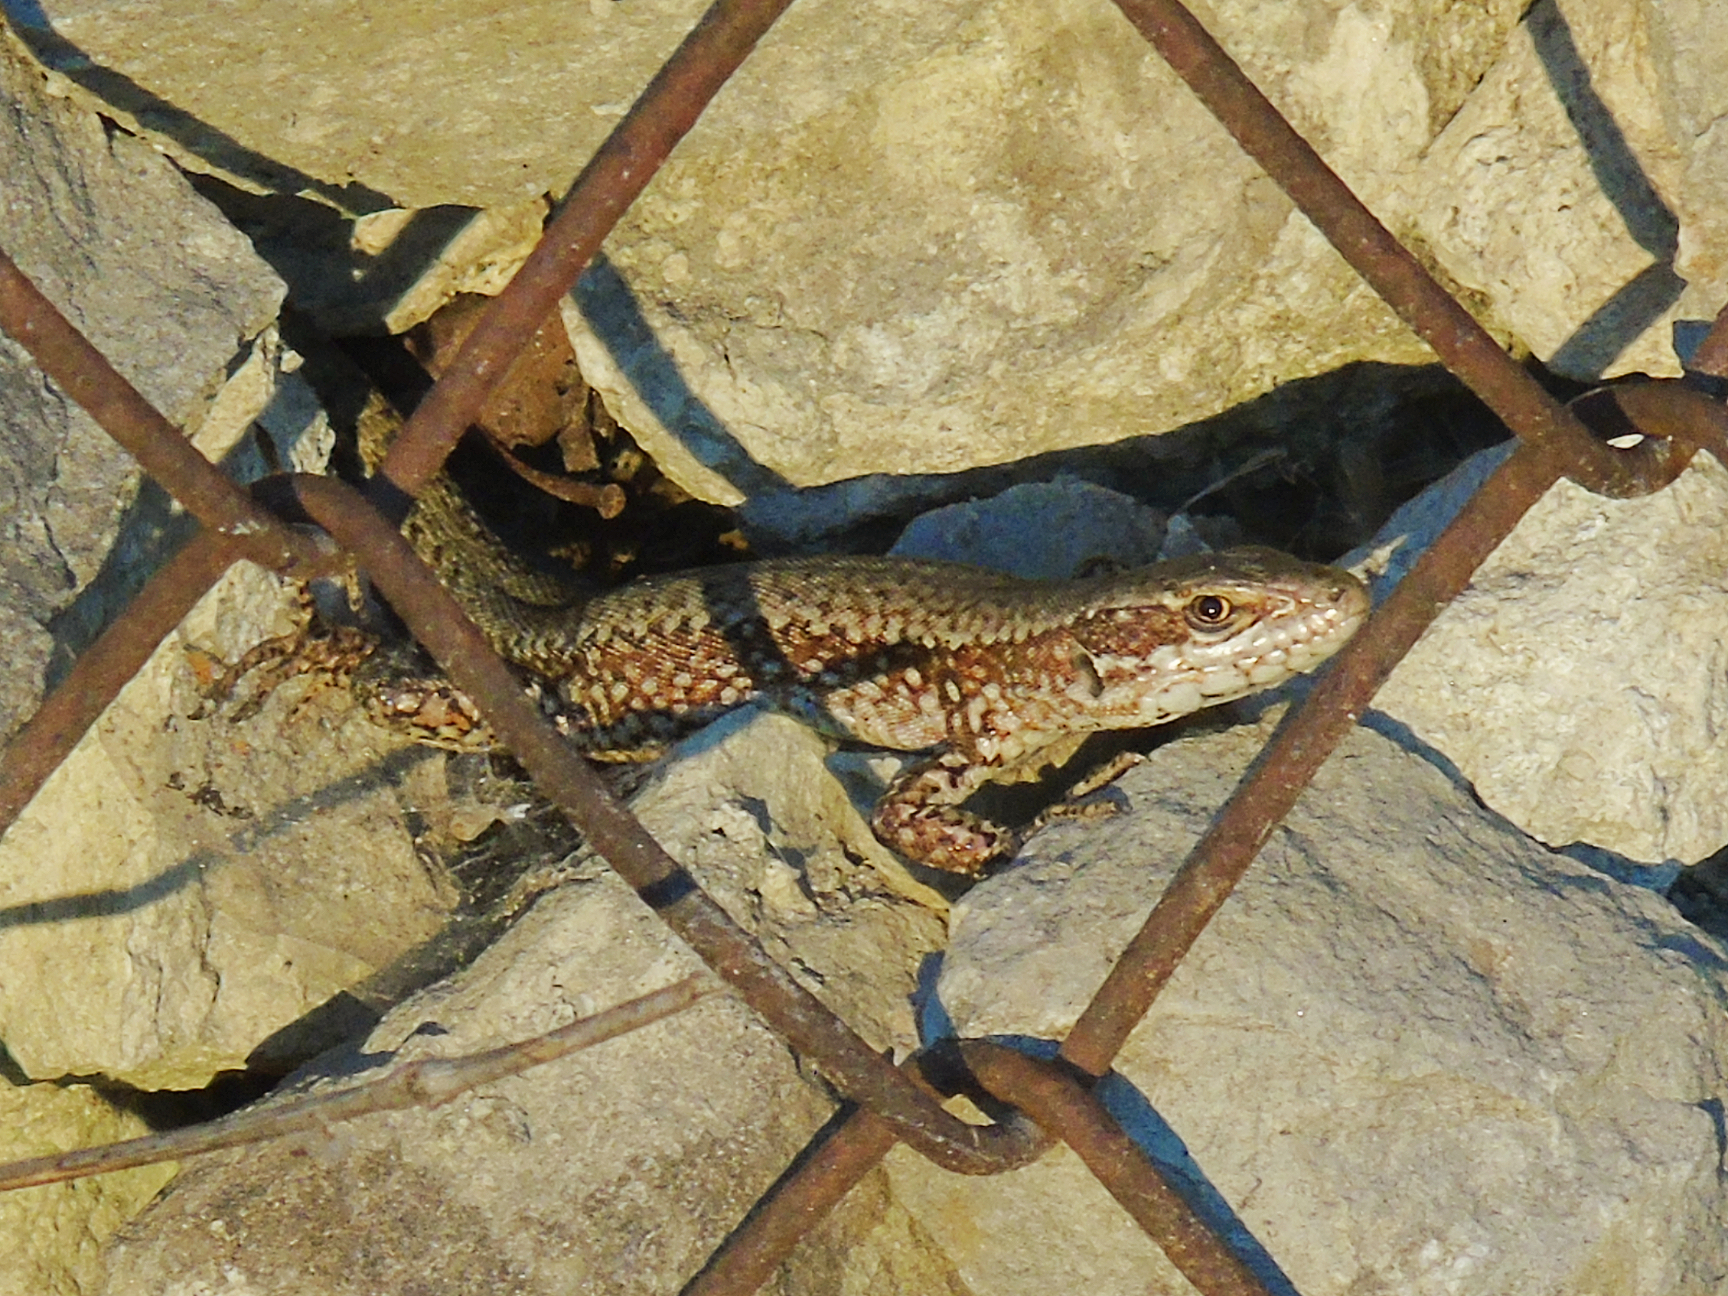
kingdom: Animalia
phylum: Chordata
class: Squamata
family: Lacertidae
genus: Podarcis
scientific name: Podarcis muralis
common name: Common wall lizard
